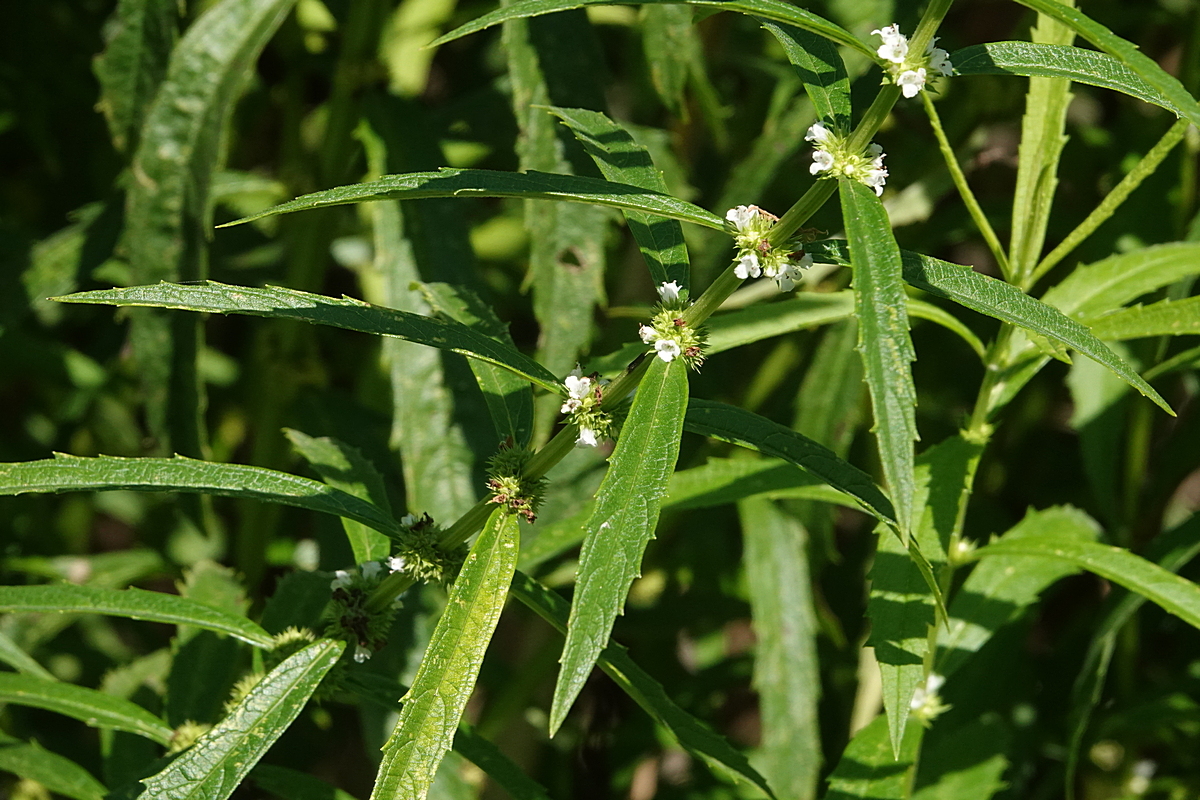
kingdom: Plantae
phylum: Tracheophyta
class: Magnoliopsida
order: Lamiales
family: Lamiaceae
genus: Lycopus
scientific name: Lycopus australis
